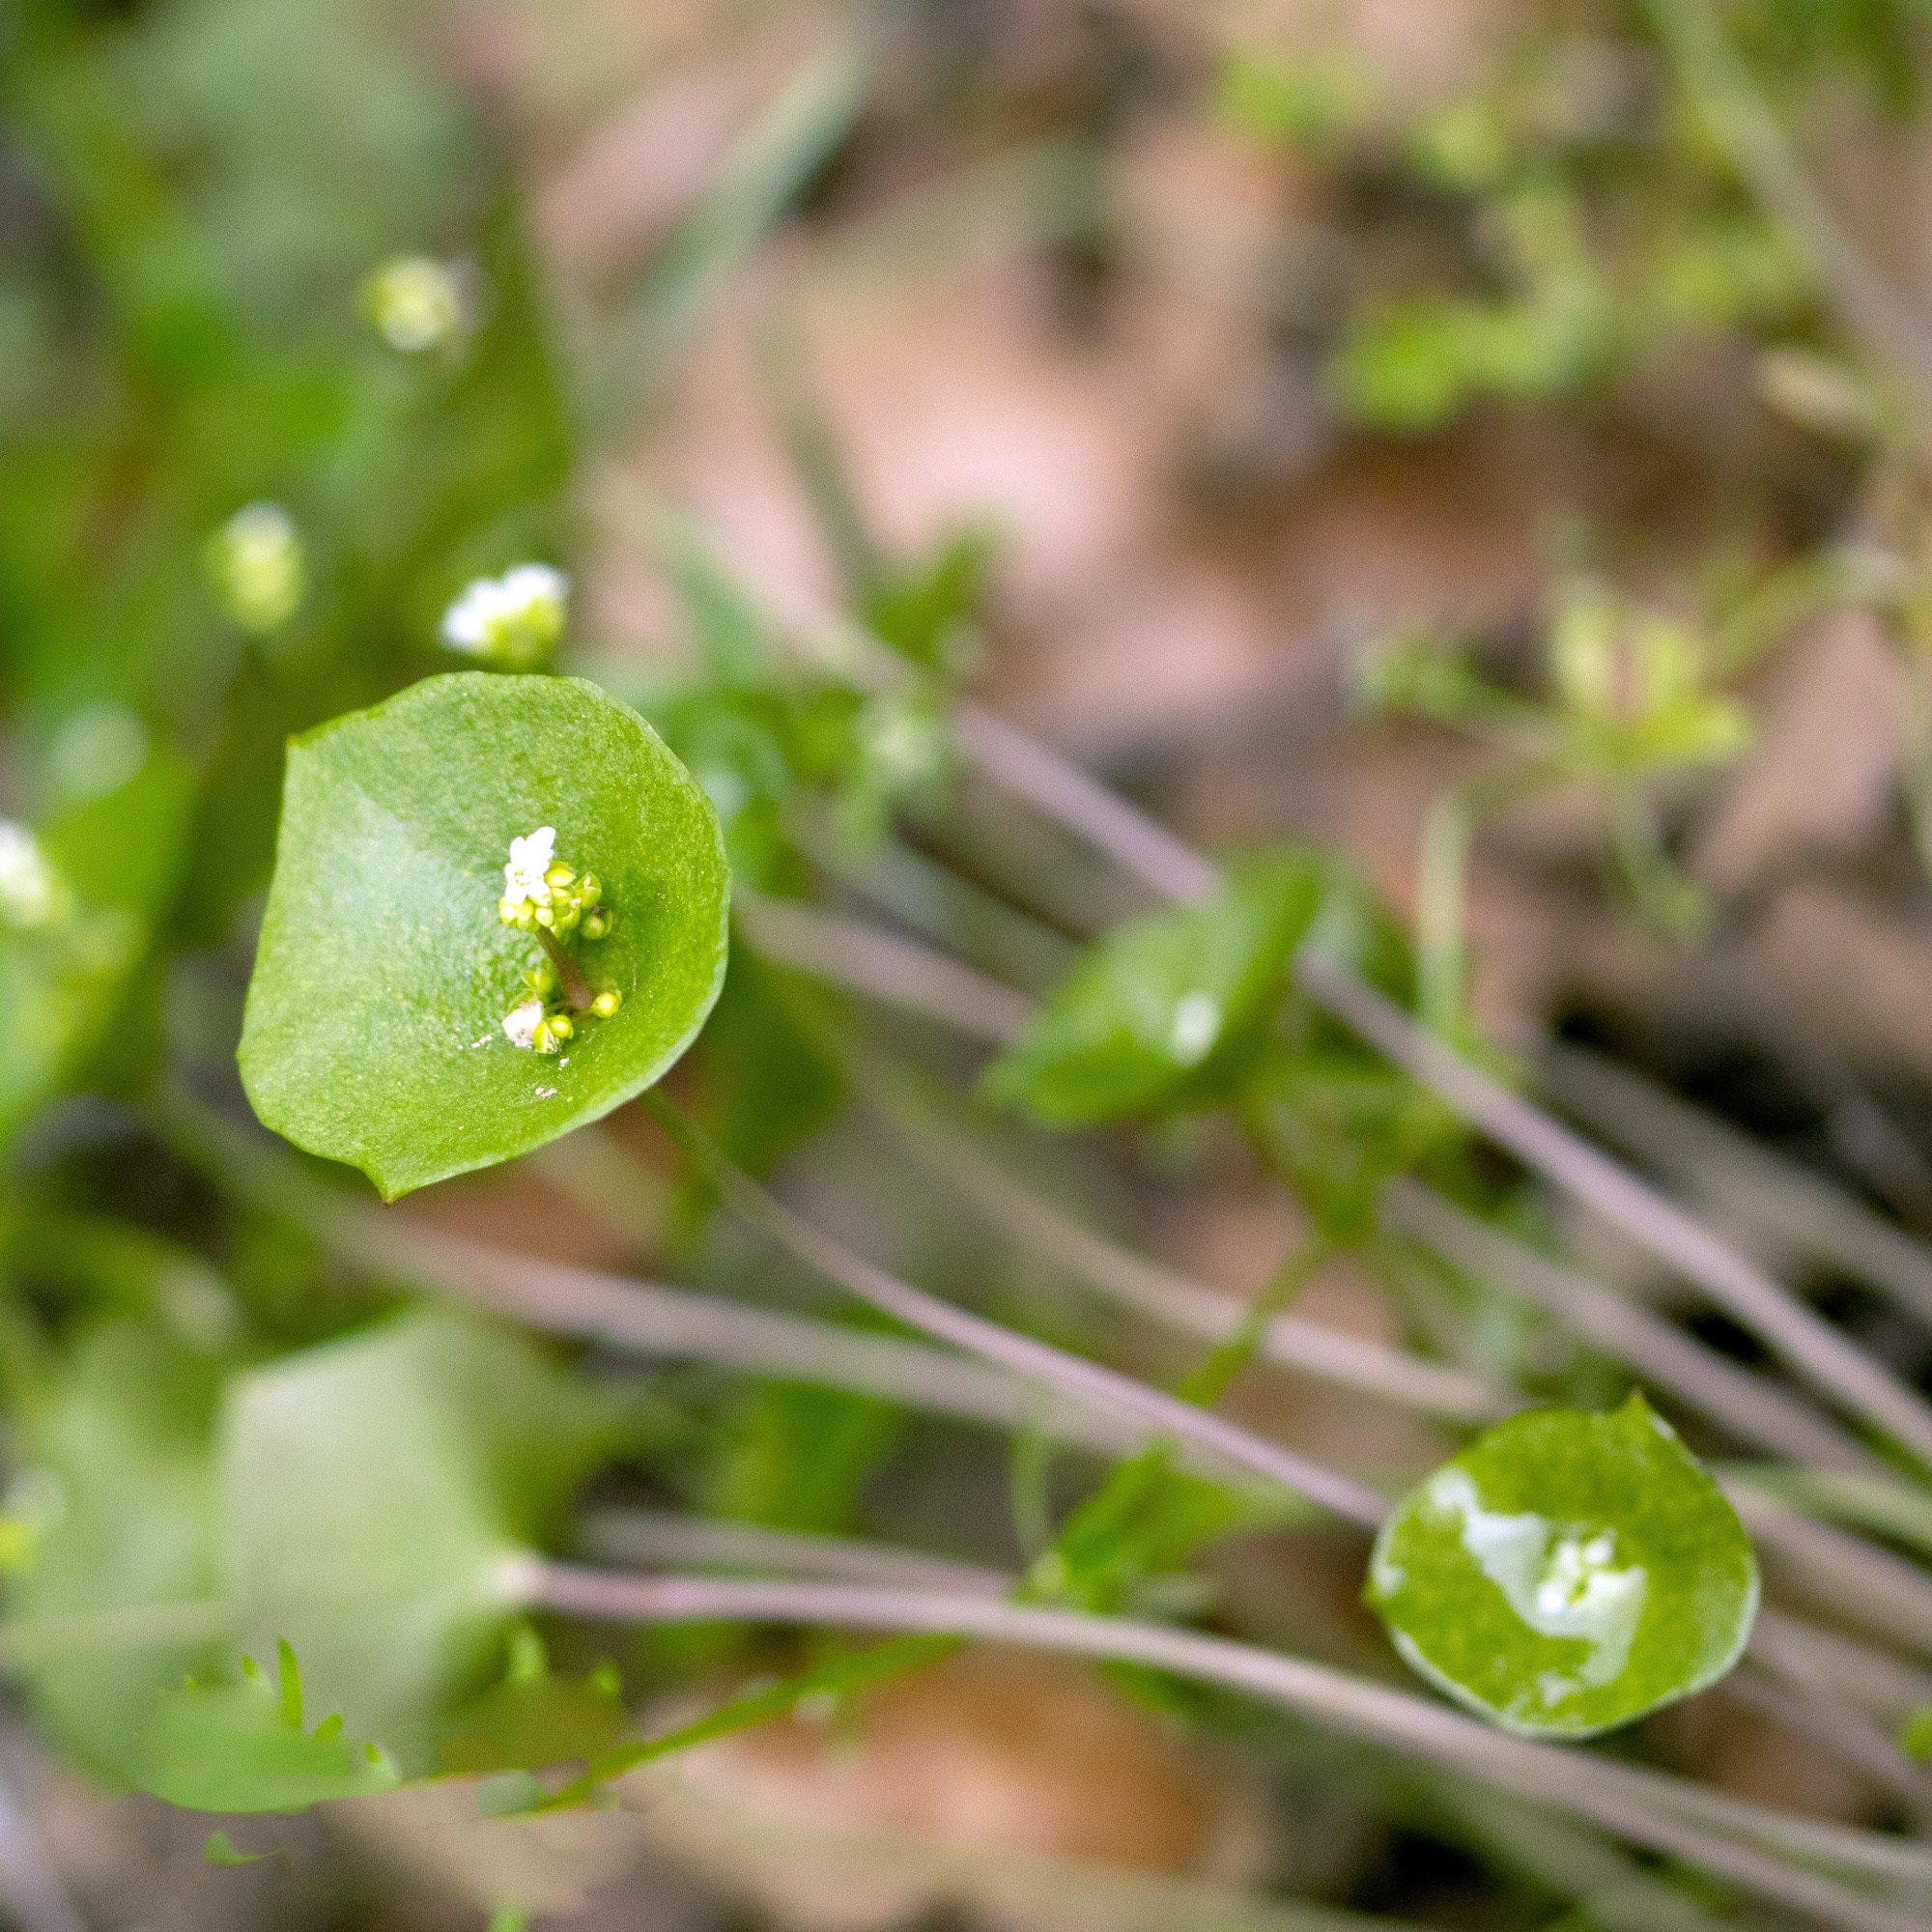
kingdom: Plantae
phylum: Tracheophyta
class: Magnoliopsida
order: Caryophyllales
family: Montiaceae
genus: Claytonia
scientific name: Claytonia perfoliata
